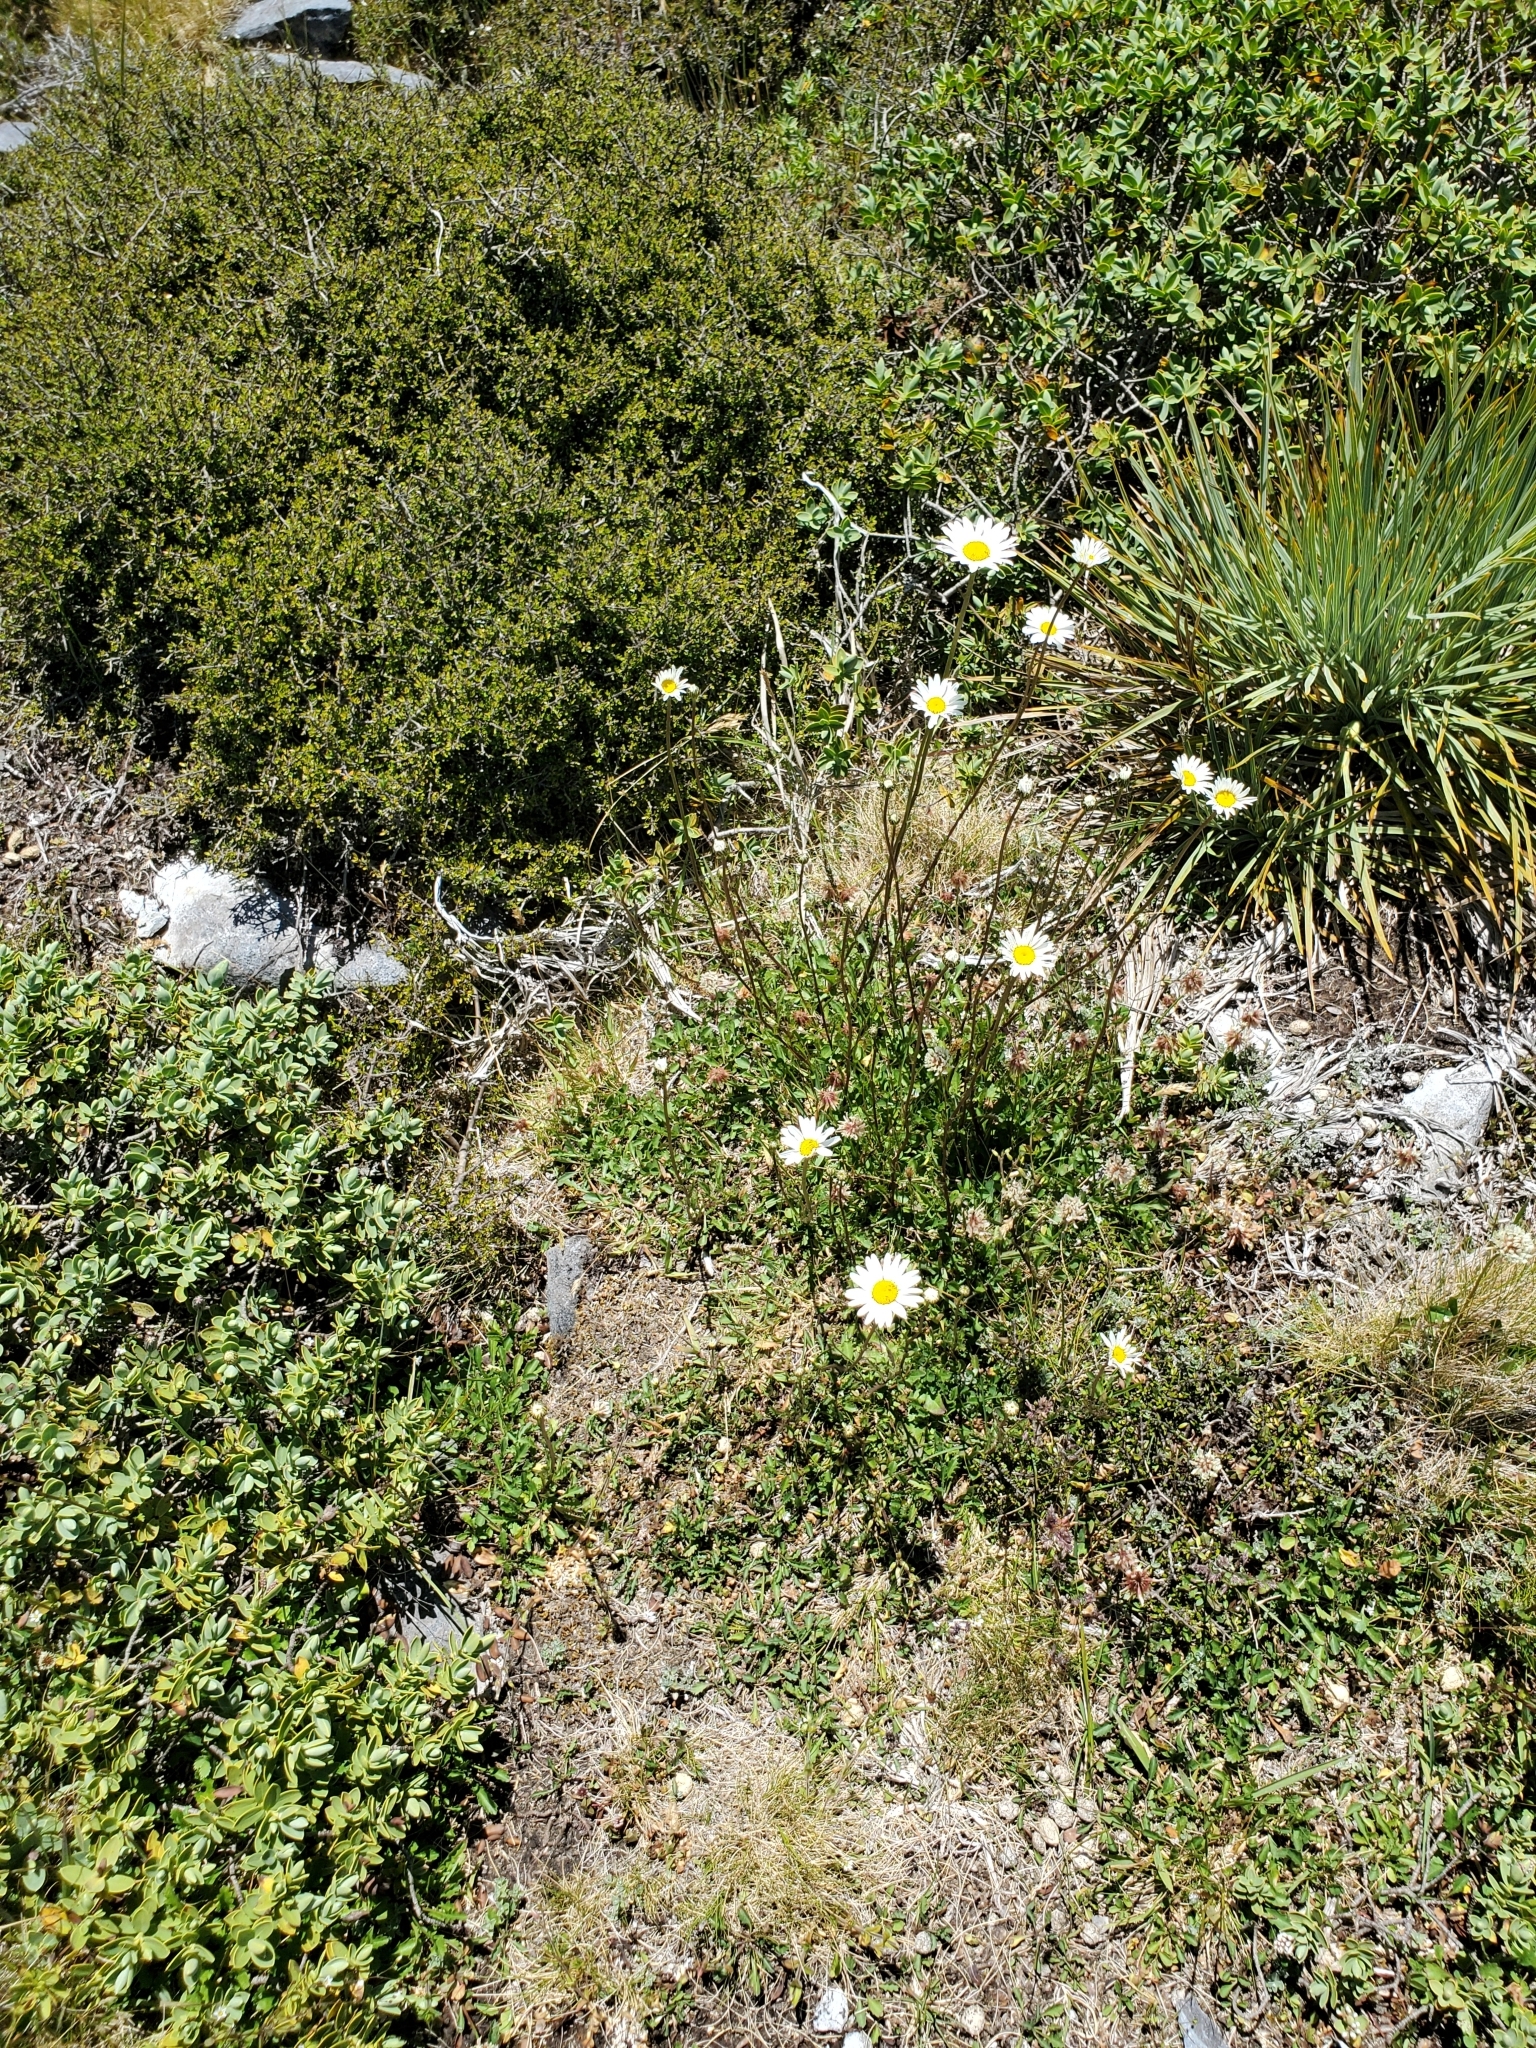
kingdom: Plantae
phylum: Tracheophyta
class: Magnoliopsida
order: Asterales
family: Asteraceae
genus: Leucanthemum
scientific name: Leucanthemum vulgare
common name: Oxeye daisy
